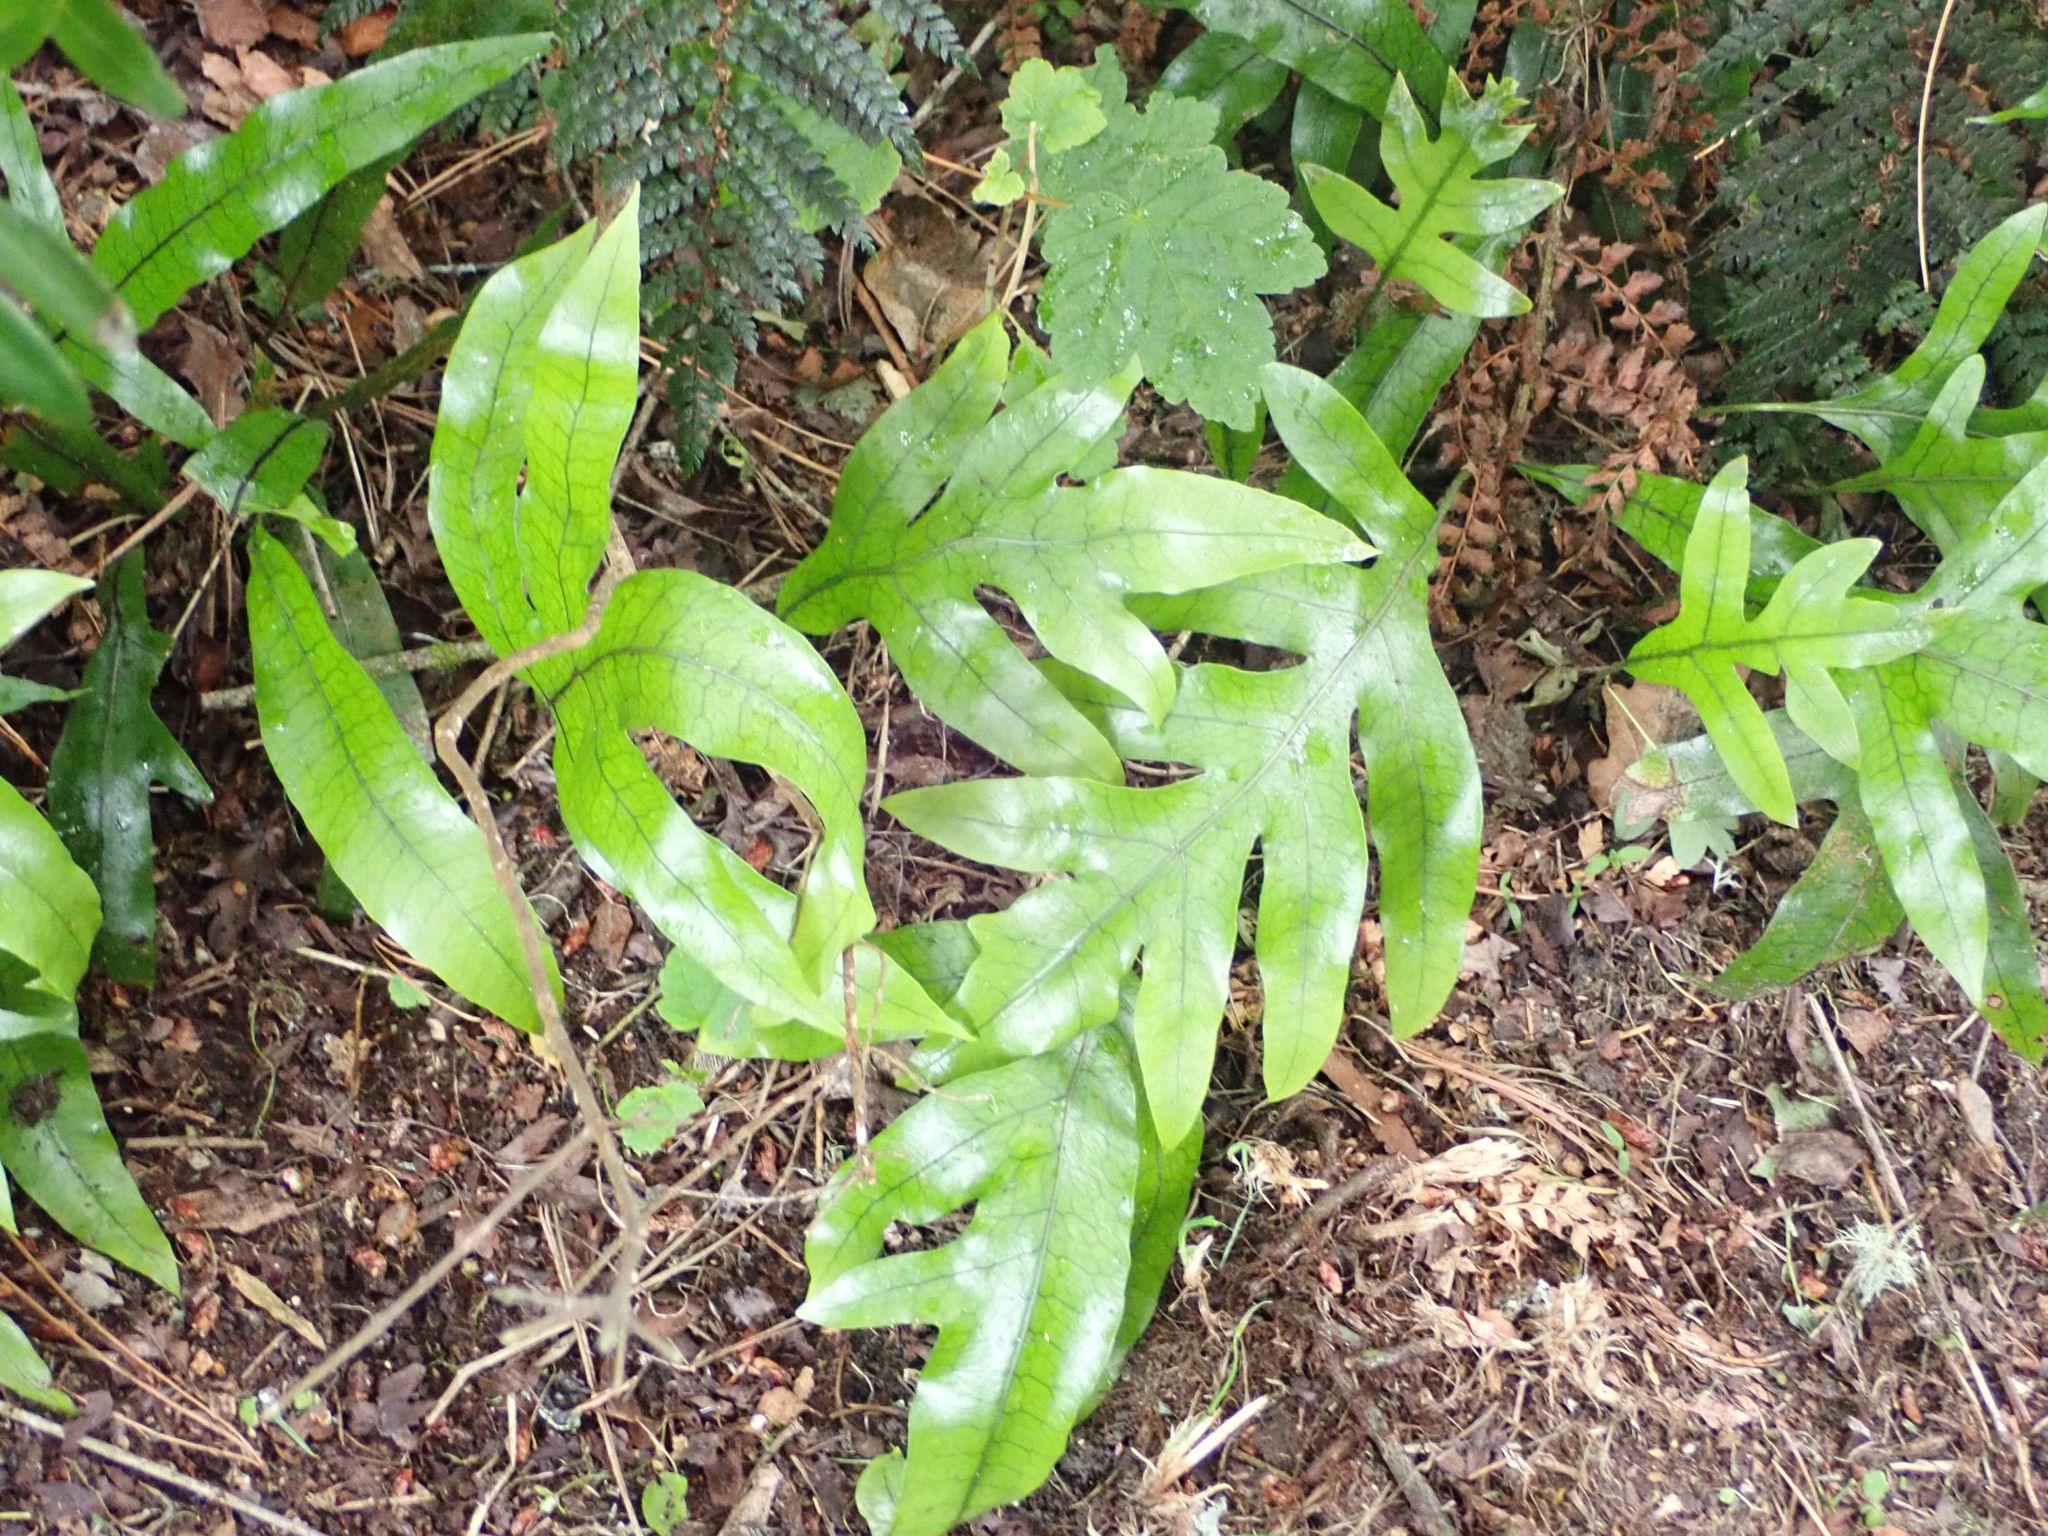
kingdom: Plantae
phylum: Tracheophyta
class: Polypodiopsida
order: Polypodiales
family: Polypodiaceae
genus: Lecanopteris
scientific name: Lecanopteris pustulata
